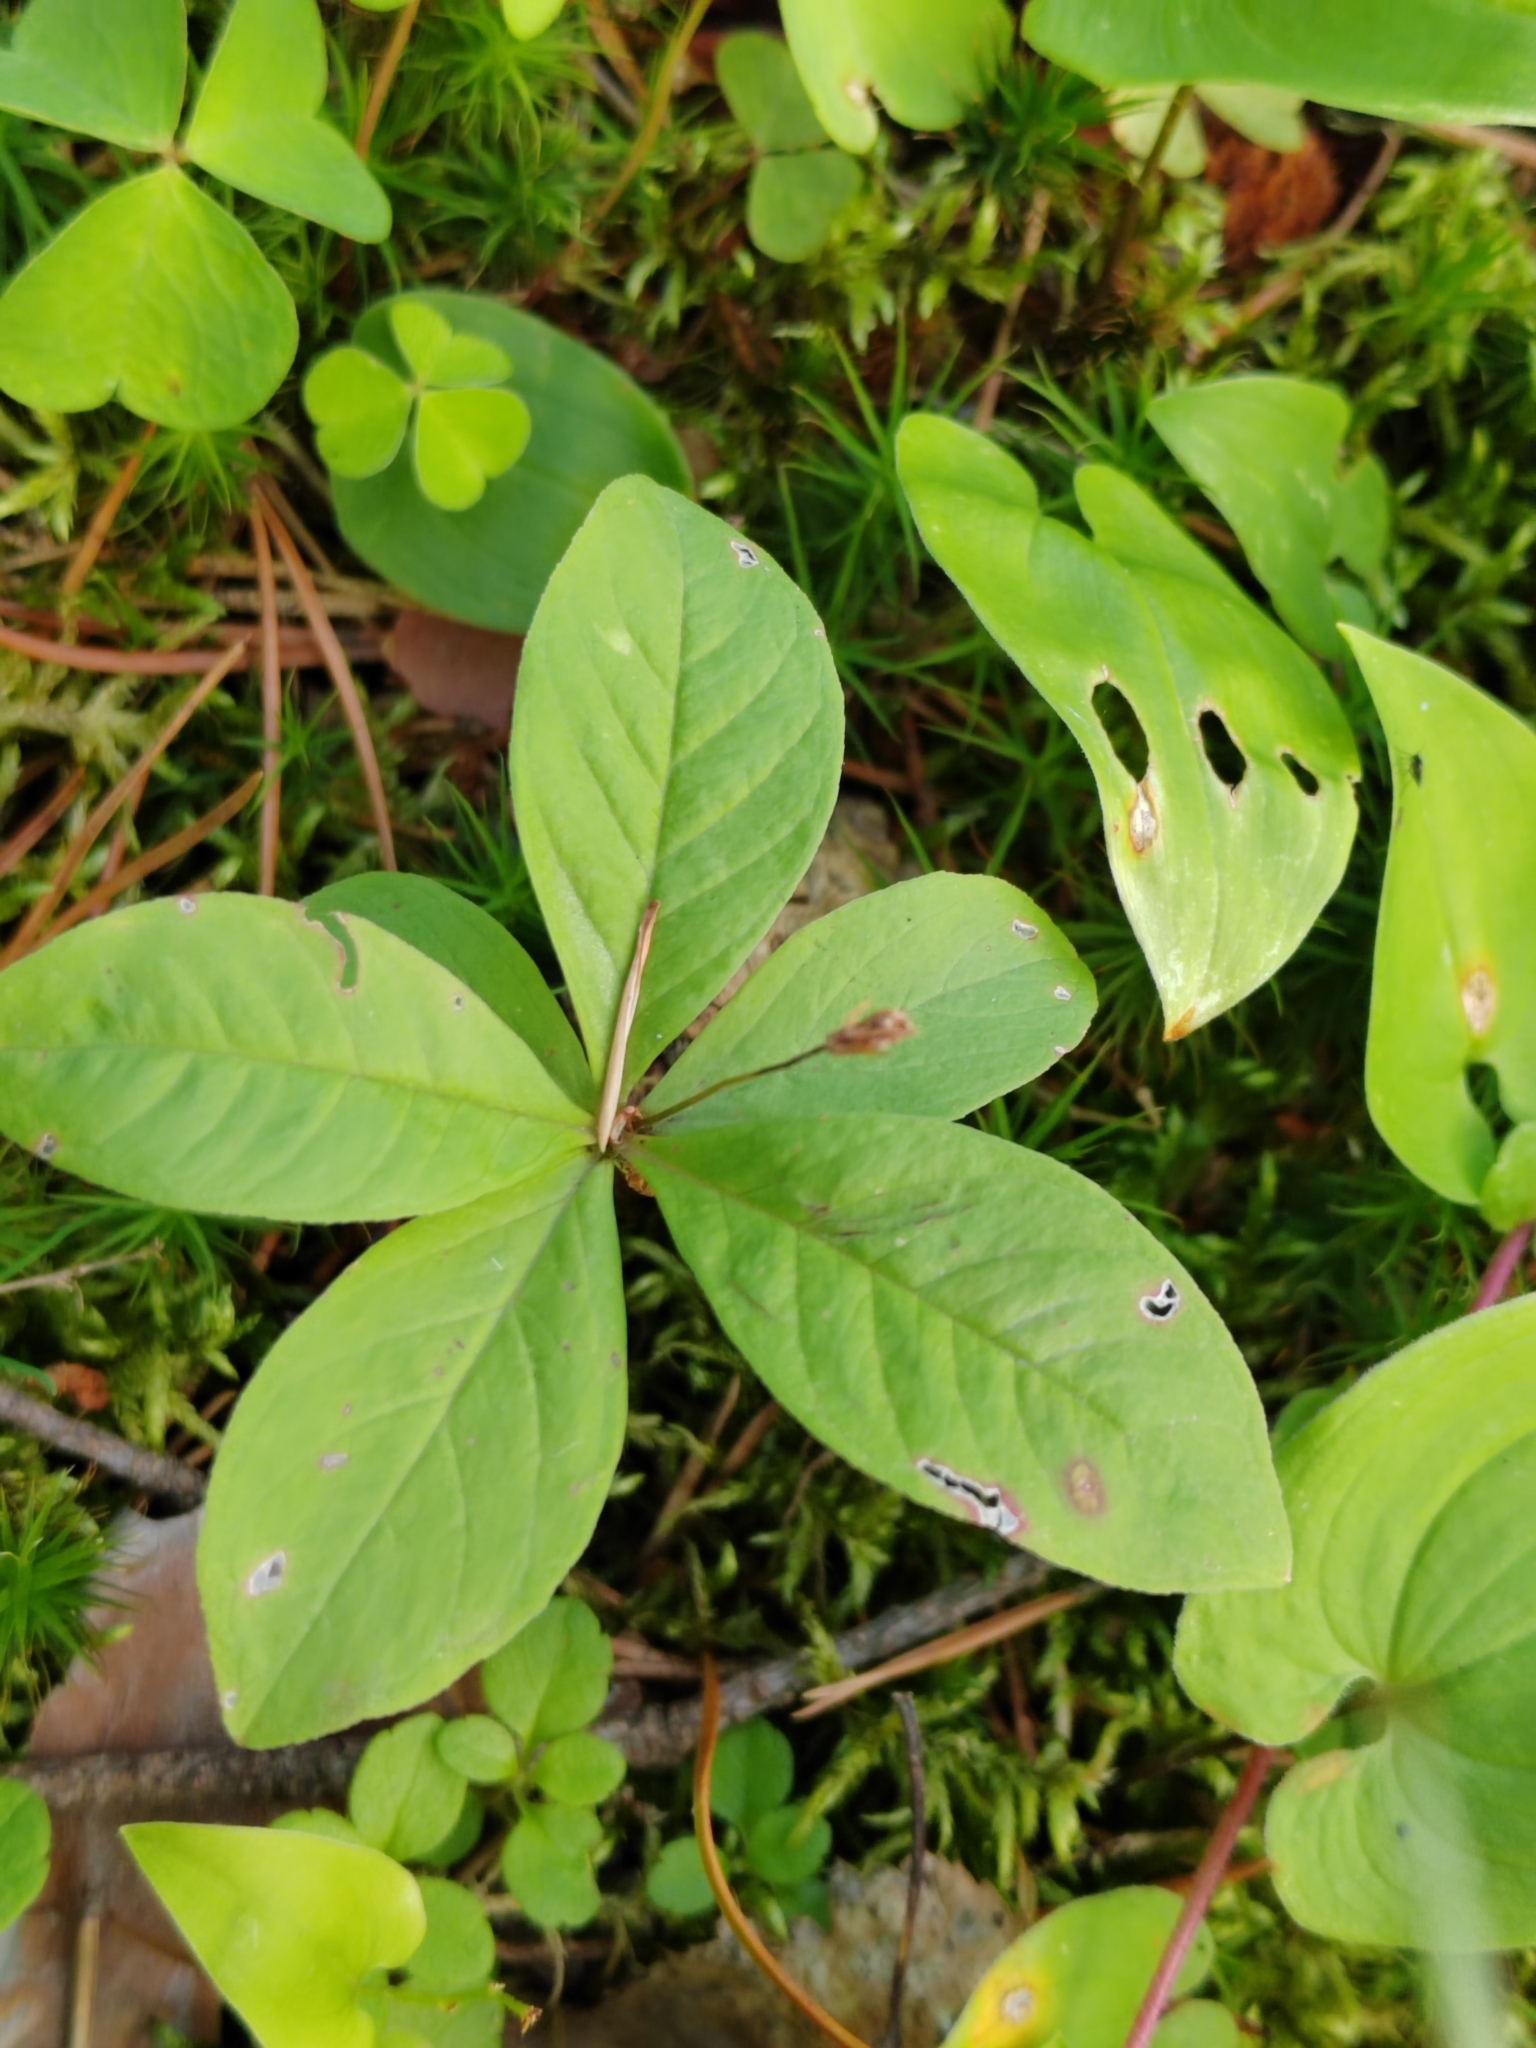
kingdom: Plantae
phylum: Tracheophyta
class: Magnoliopsida
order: Ericales
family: Primulaceae
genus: Lysimachia
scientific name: Lysimachia europaea
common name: Arctic starflower
